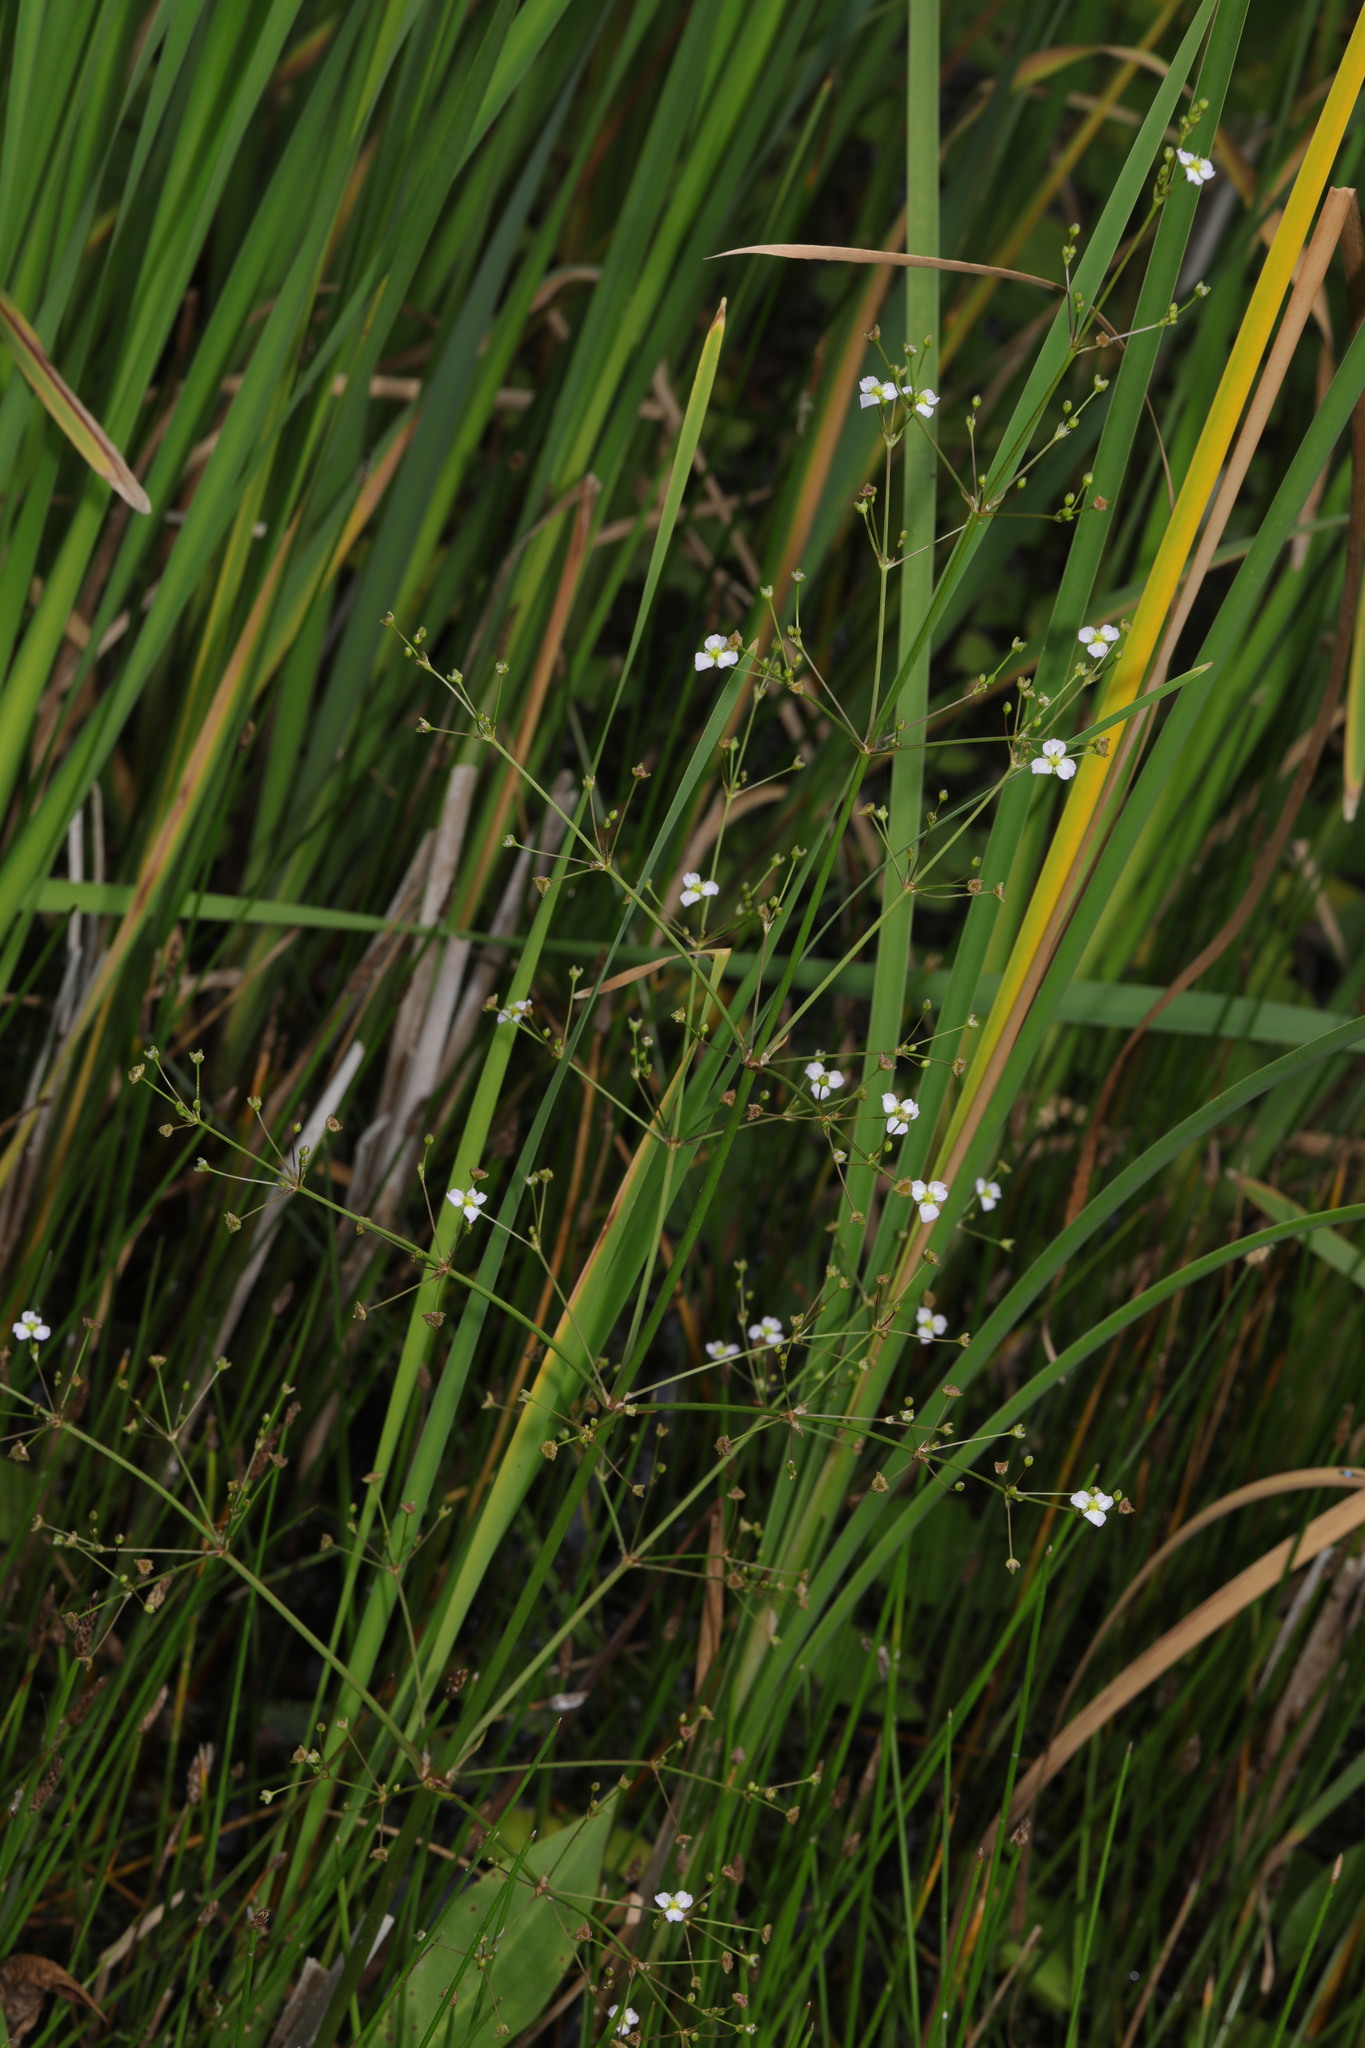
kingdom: Plantae
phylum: Tracheophyta
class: Liliopsida
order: Alismatales
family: Alismataceae
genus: Alisma
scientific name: Alisma plantago-aquatica
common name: Water-plantain
